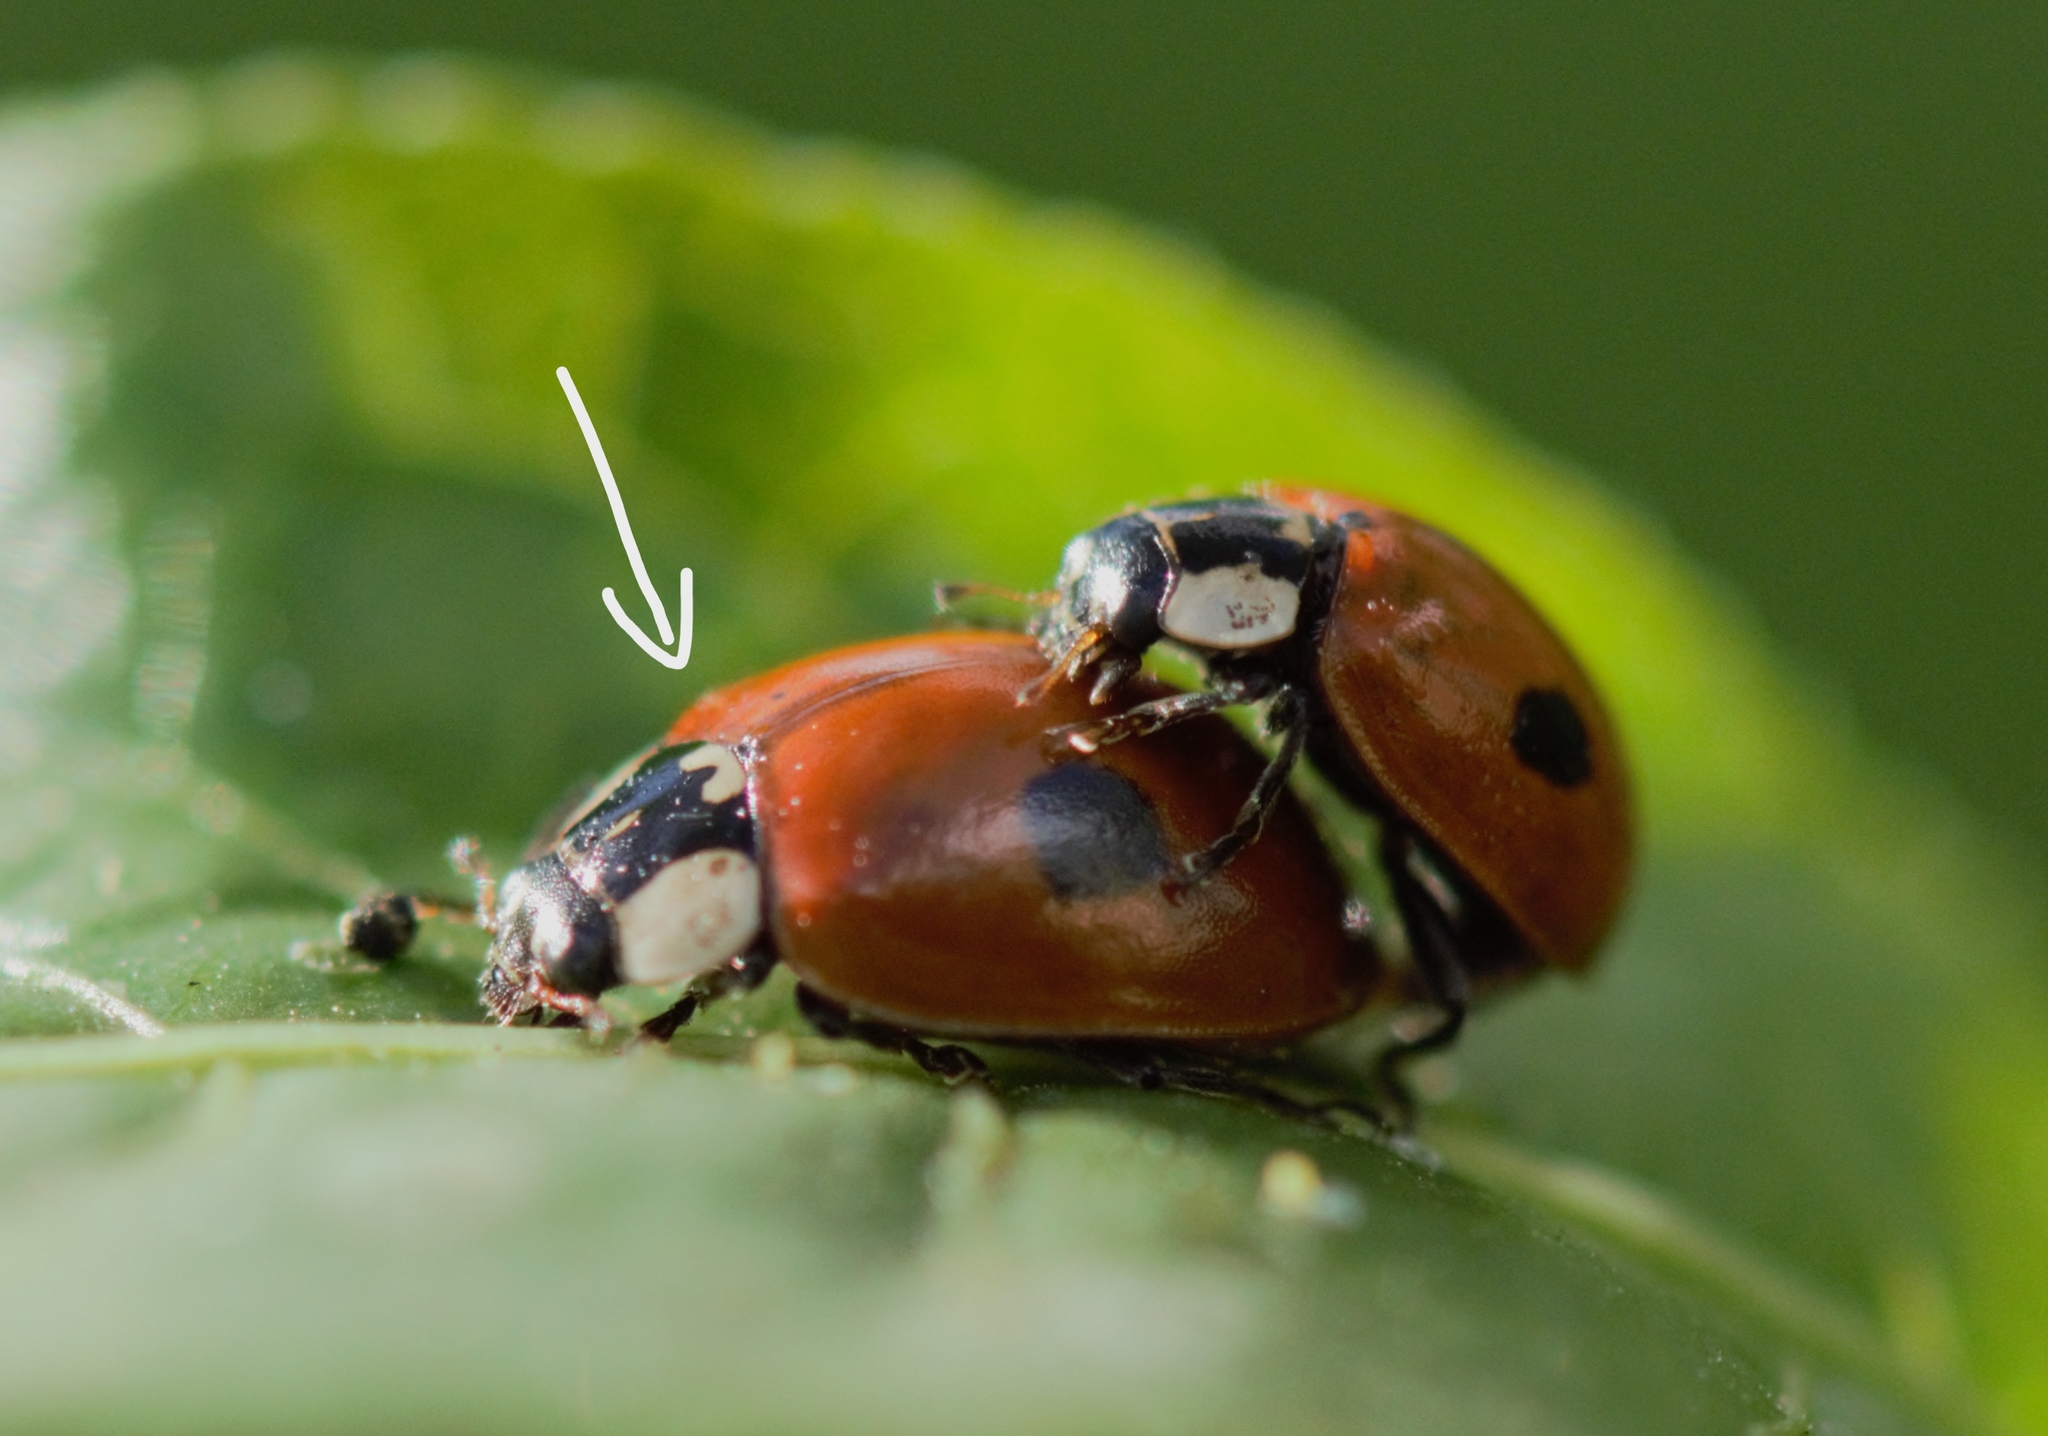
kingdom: Animalia
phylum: Arthropoda
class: Insecta
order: Coleoptera
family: Coccinellidae
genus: Adalia
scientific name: Adalia bipunctata
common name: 2-spot ladybird
